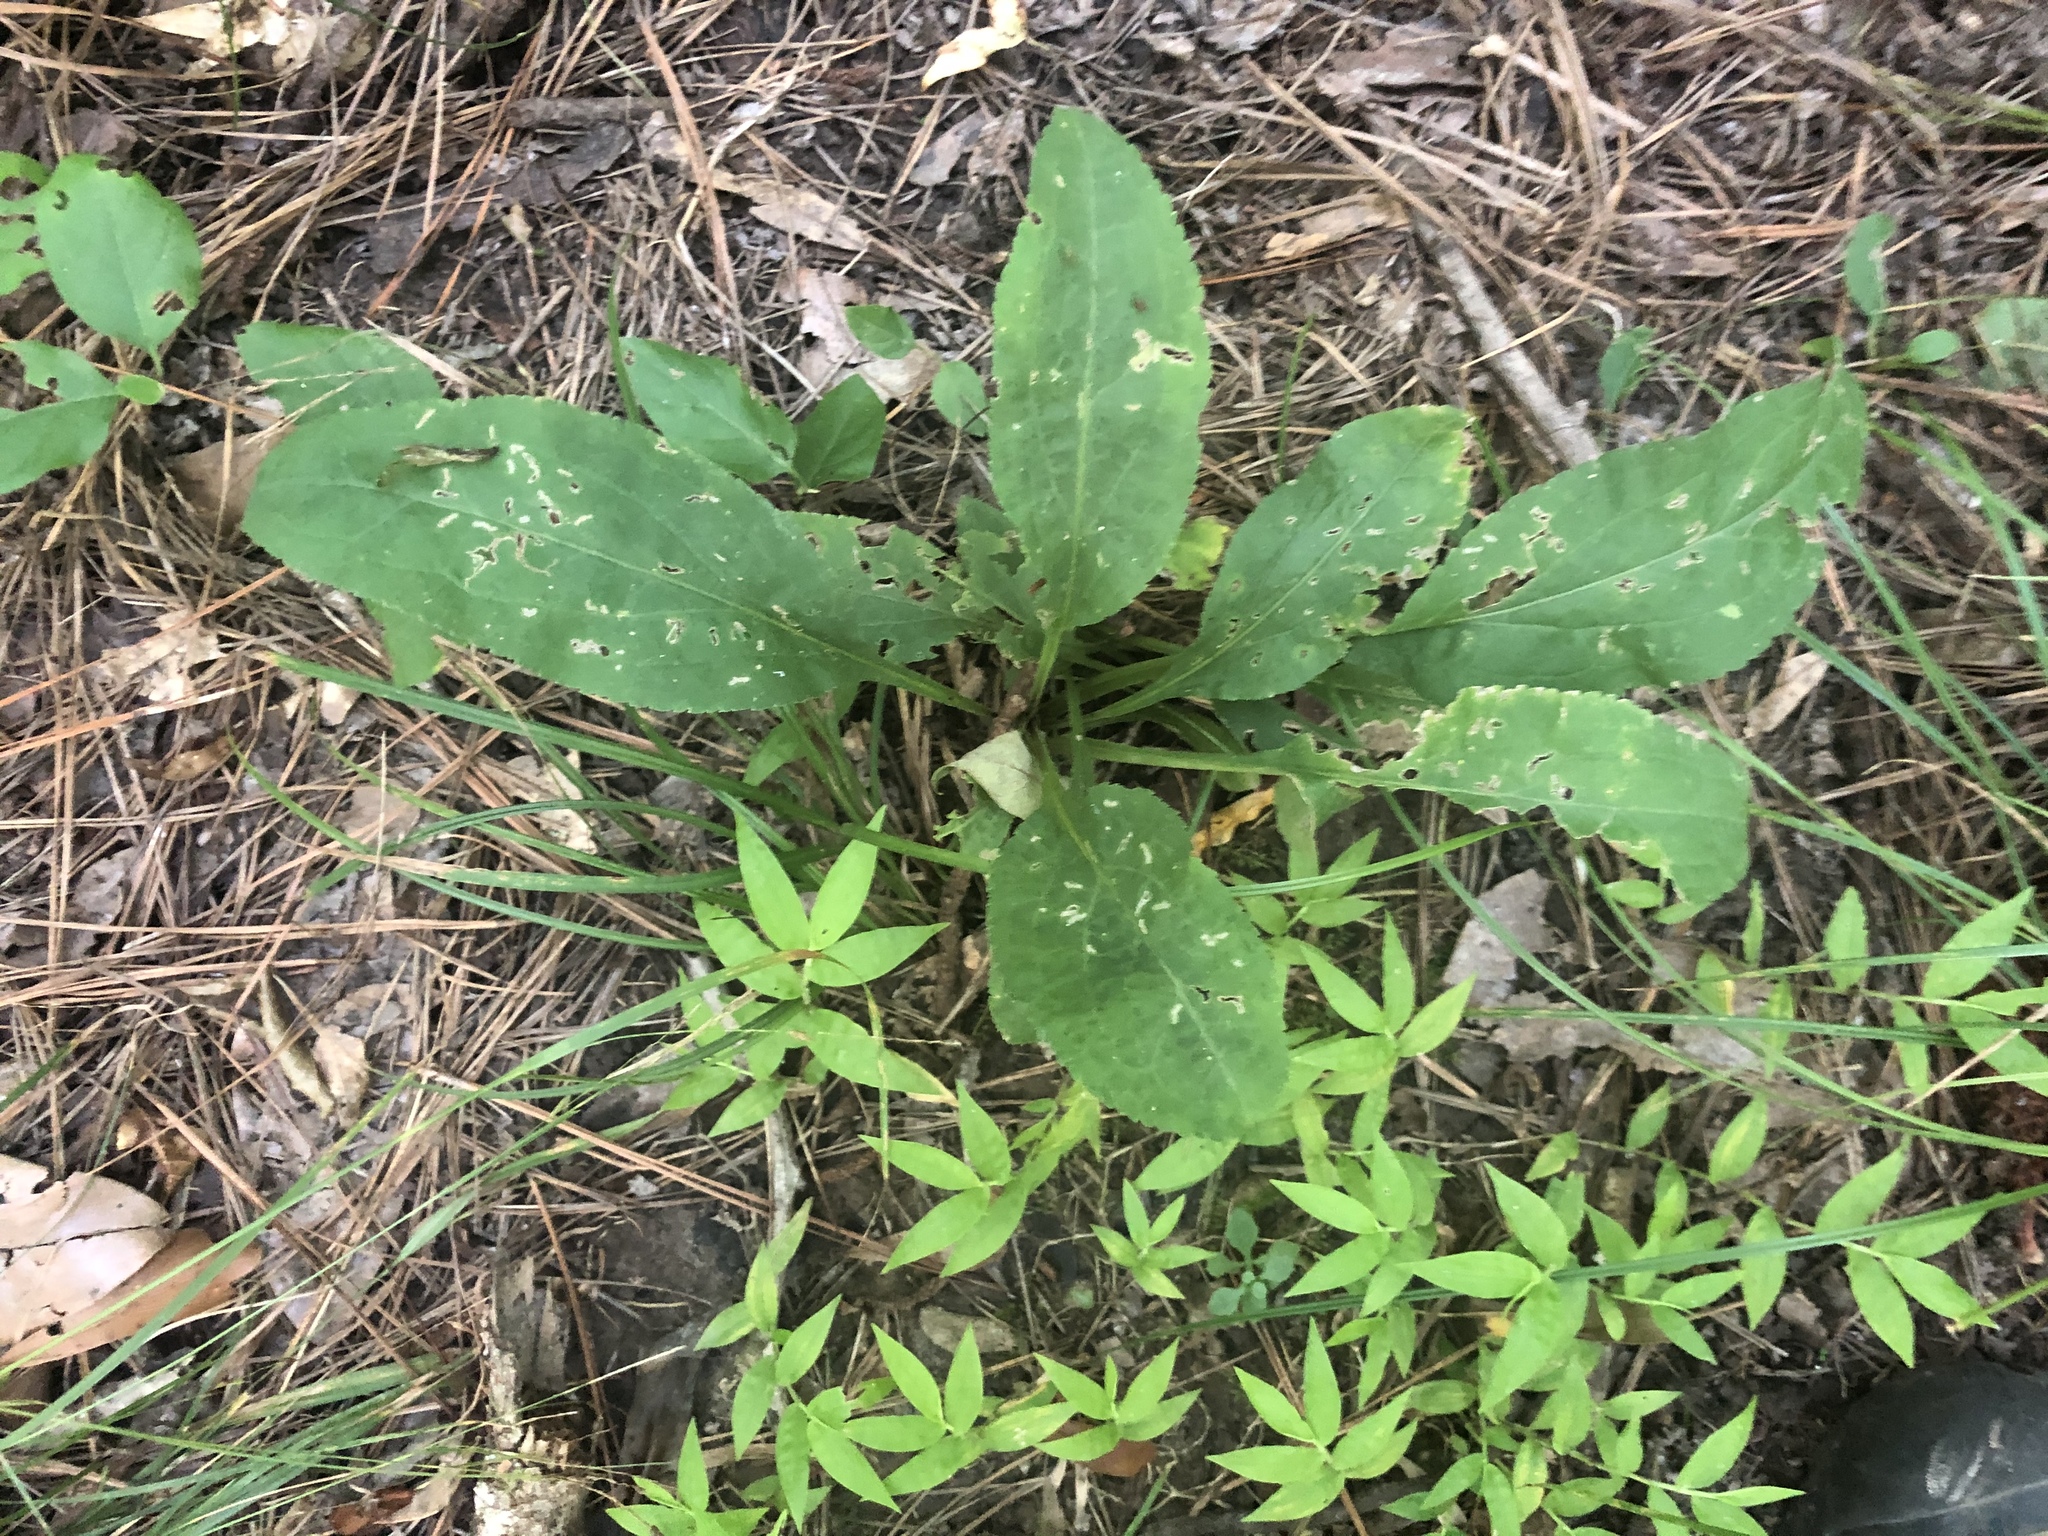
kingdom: Plantae
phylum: Tracheophyta
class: Magnoliopsida
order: Asterales
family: Asteraceae
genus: Solidago
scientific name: Solidago patula
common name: Rough-leaf goldenrod
